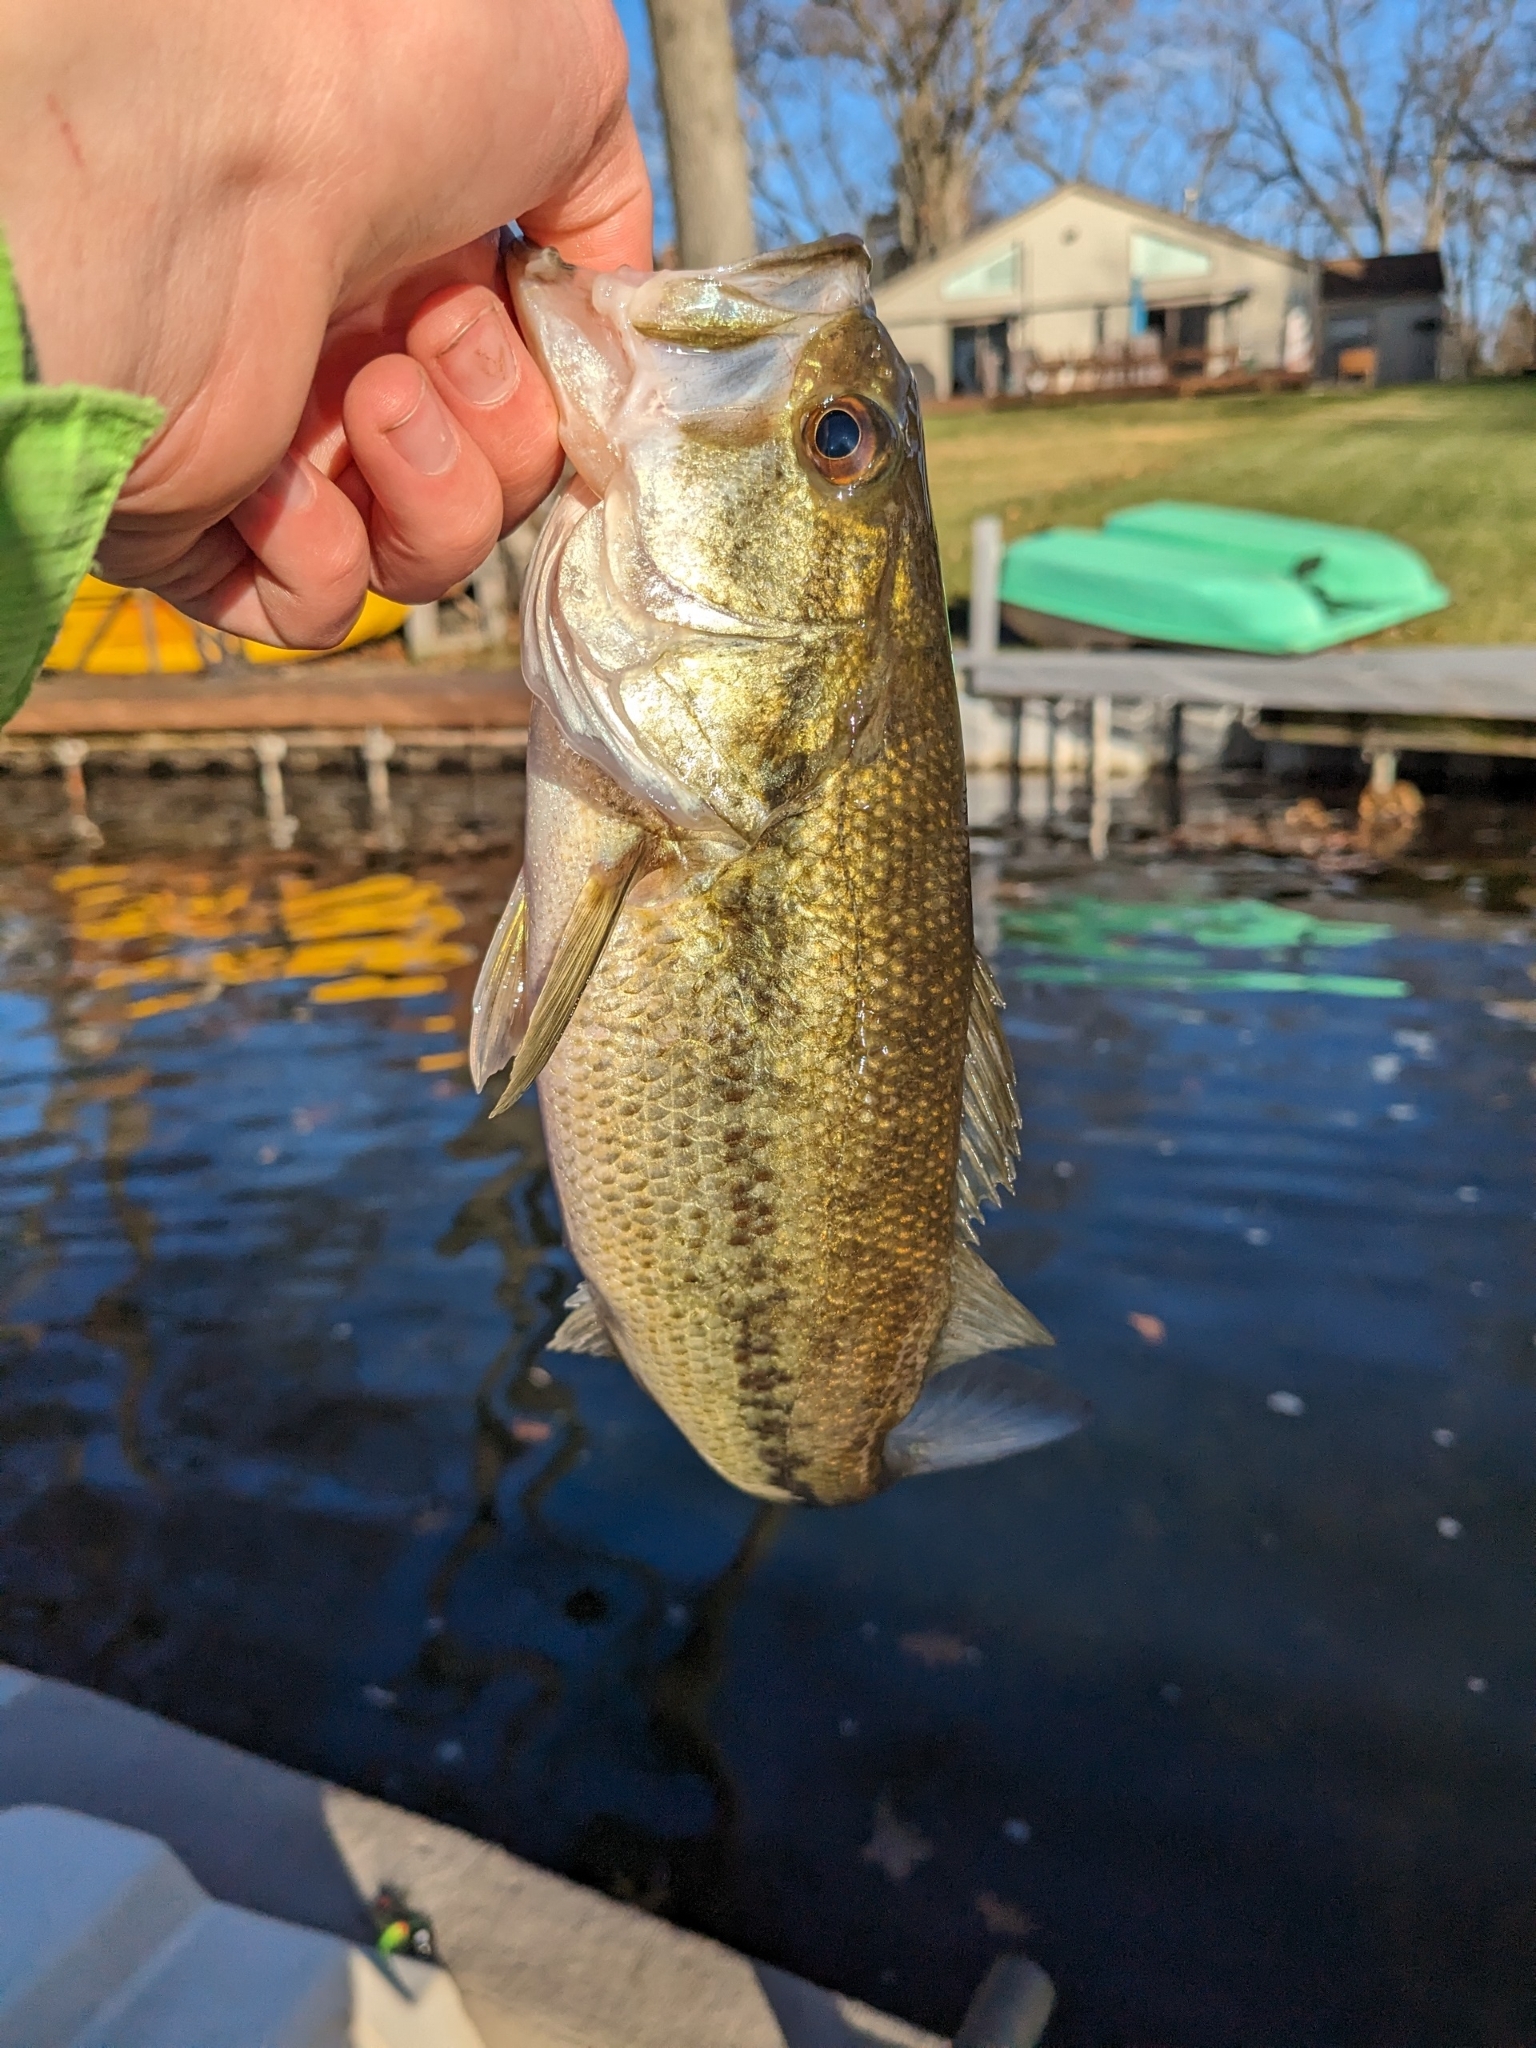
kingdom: Animalia
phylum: Chordata
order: Perciformes
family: Centrarchidae
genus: Micropterus
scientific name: Micropterus
